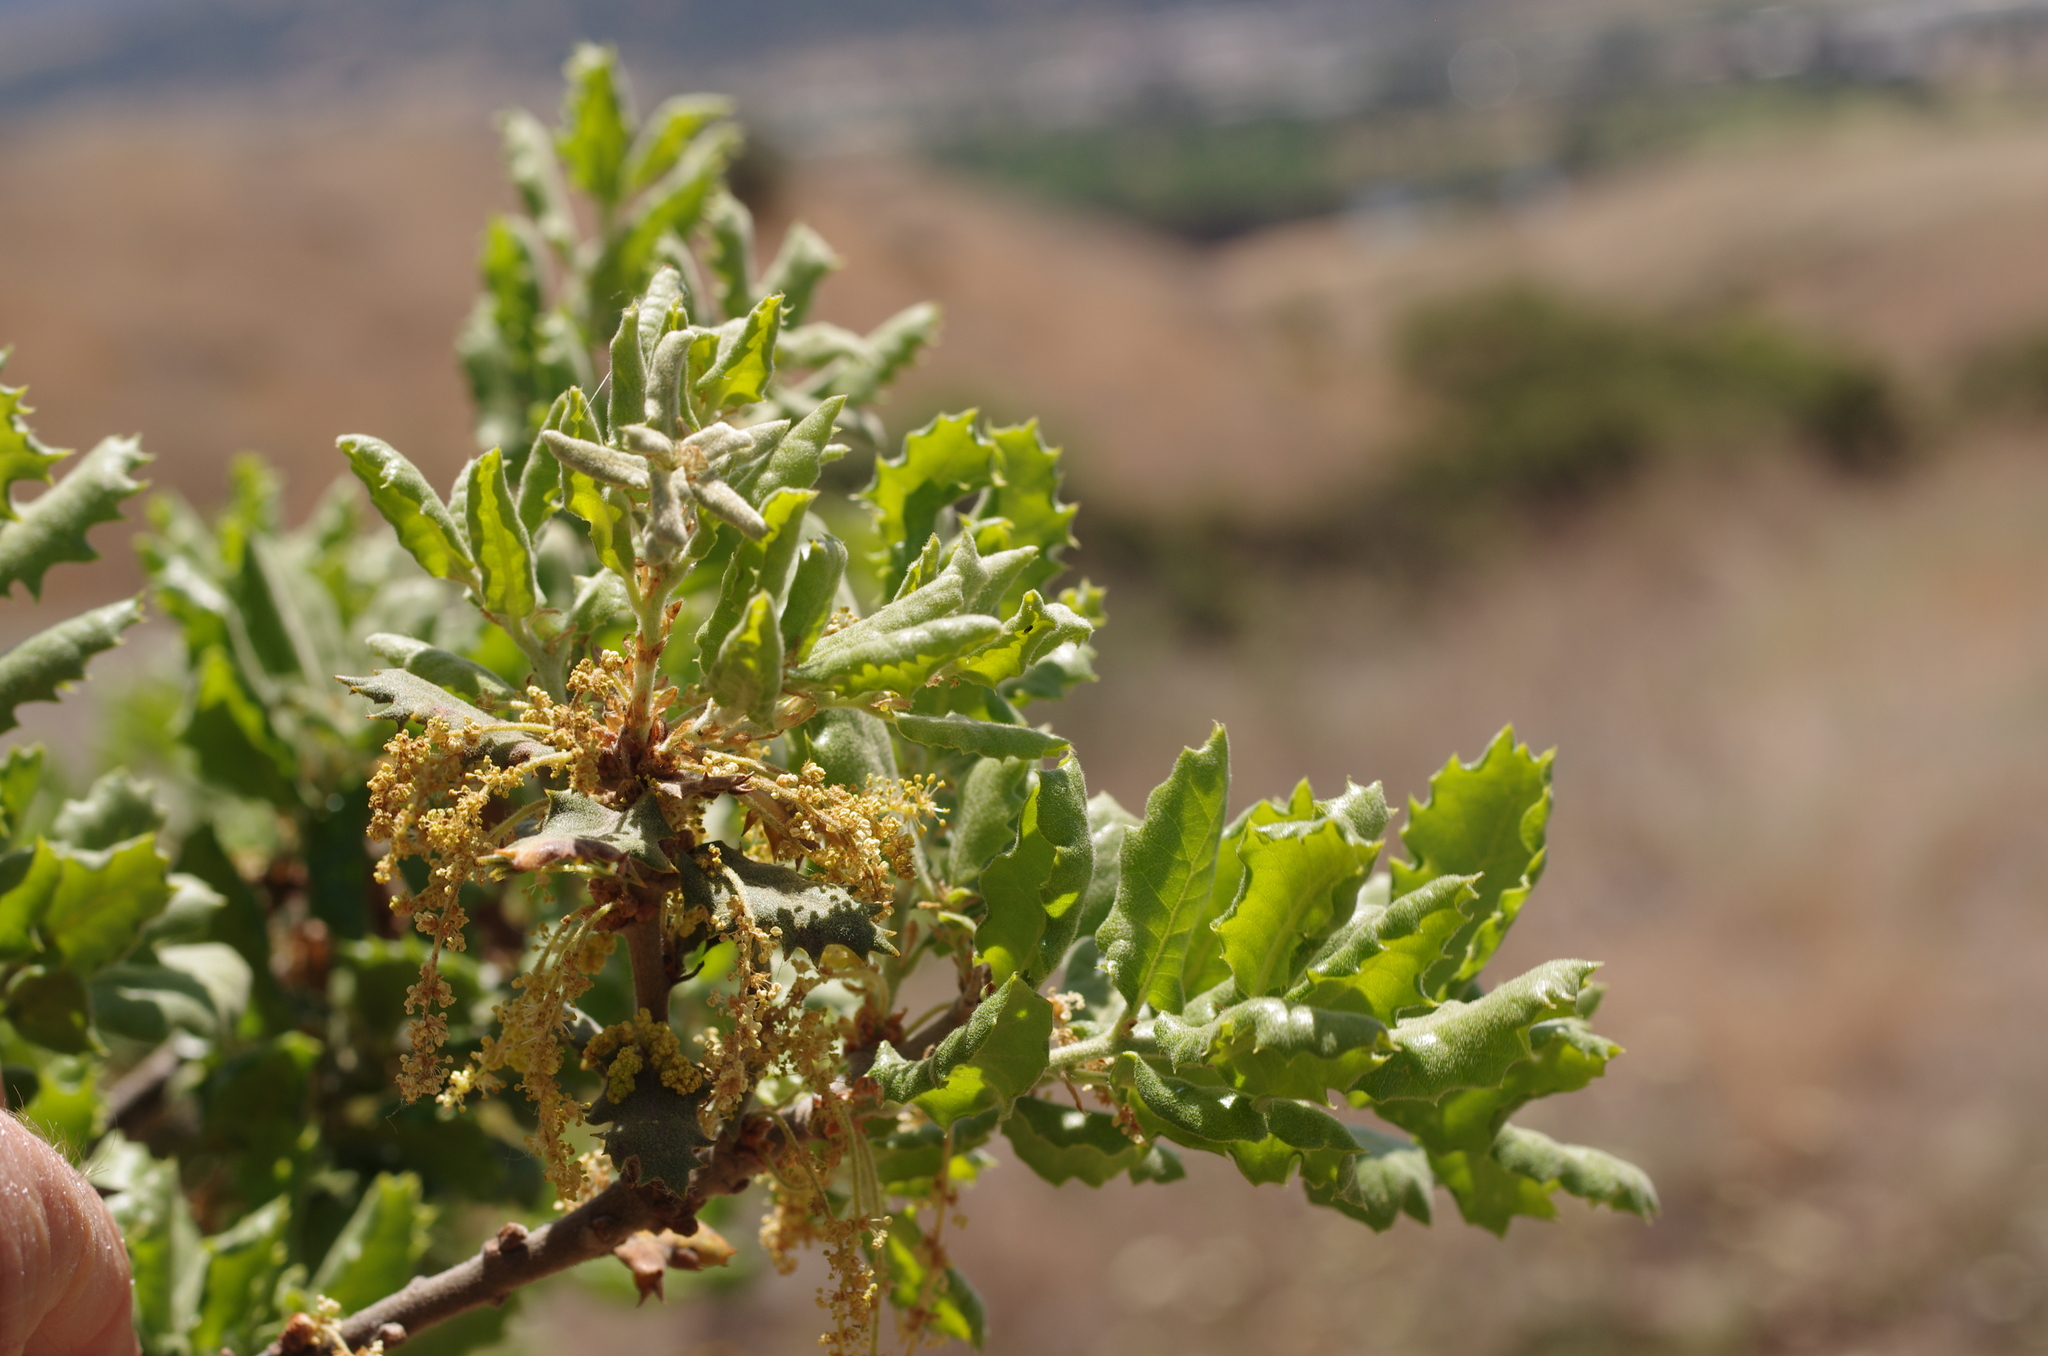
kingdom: Plantae
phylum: Tracheophyta
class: Magnoliopsida
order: Fagales
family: Fagaceae
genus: Quercus
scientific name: Quercus durata
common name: Leather oak
